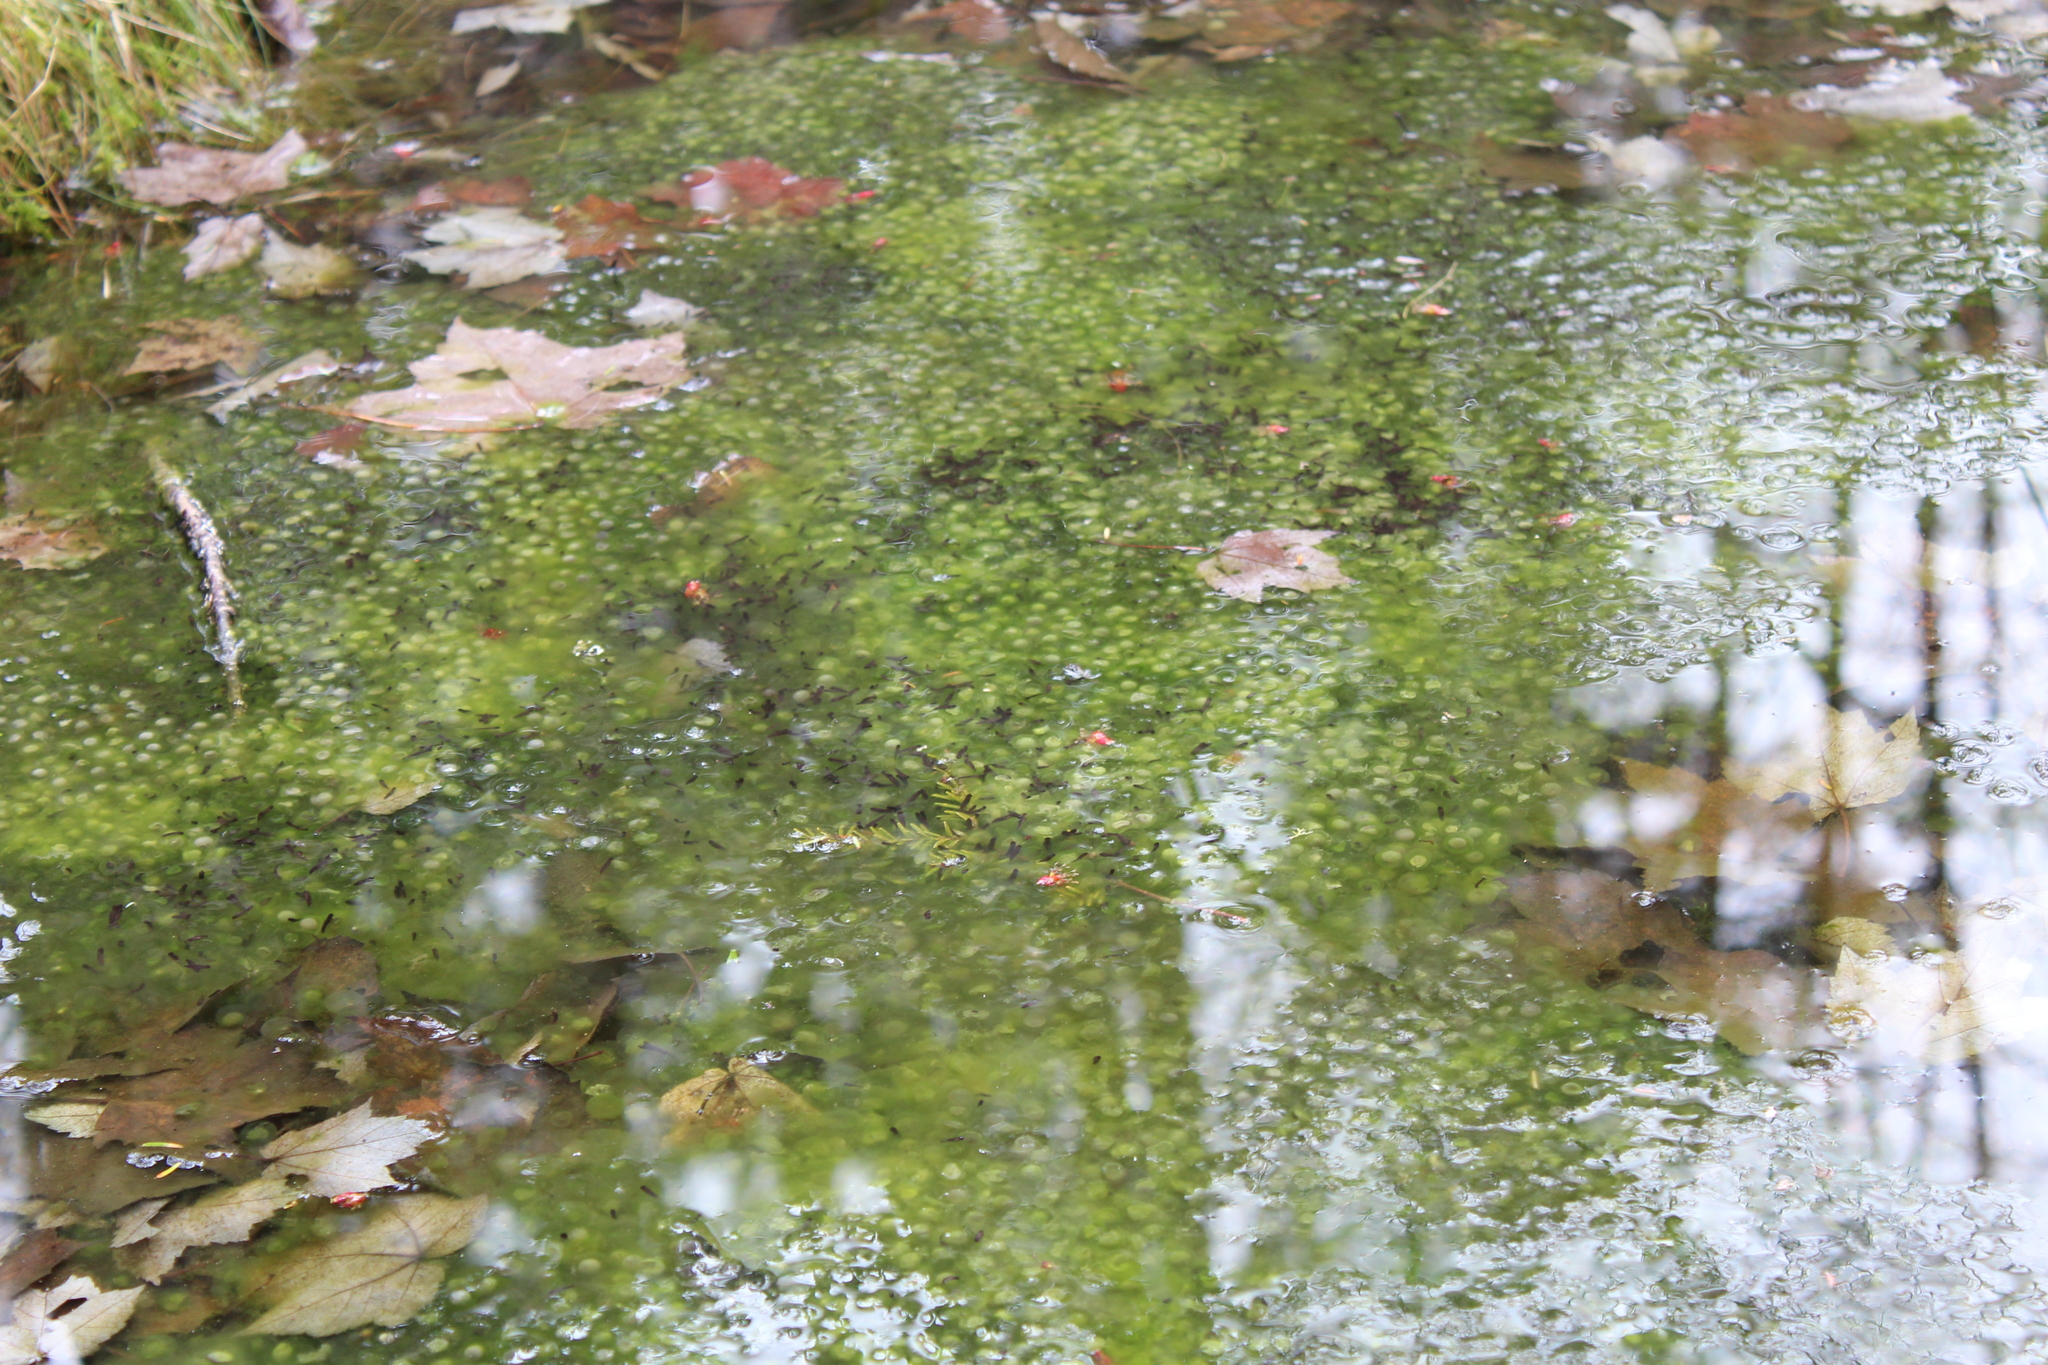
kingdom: Animalia
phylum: Chordata
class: Amphibia
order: Anura
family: Ranidae
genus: Lithobates
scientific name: Lithobates sylvaticus
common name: Wood frog
